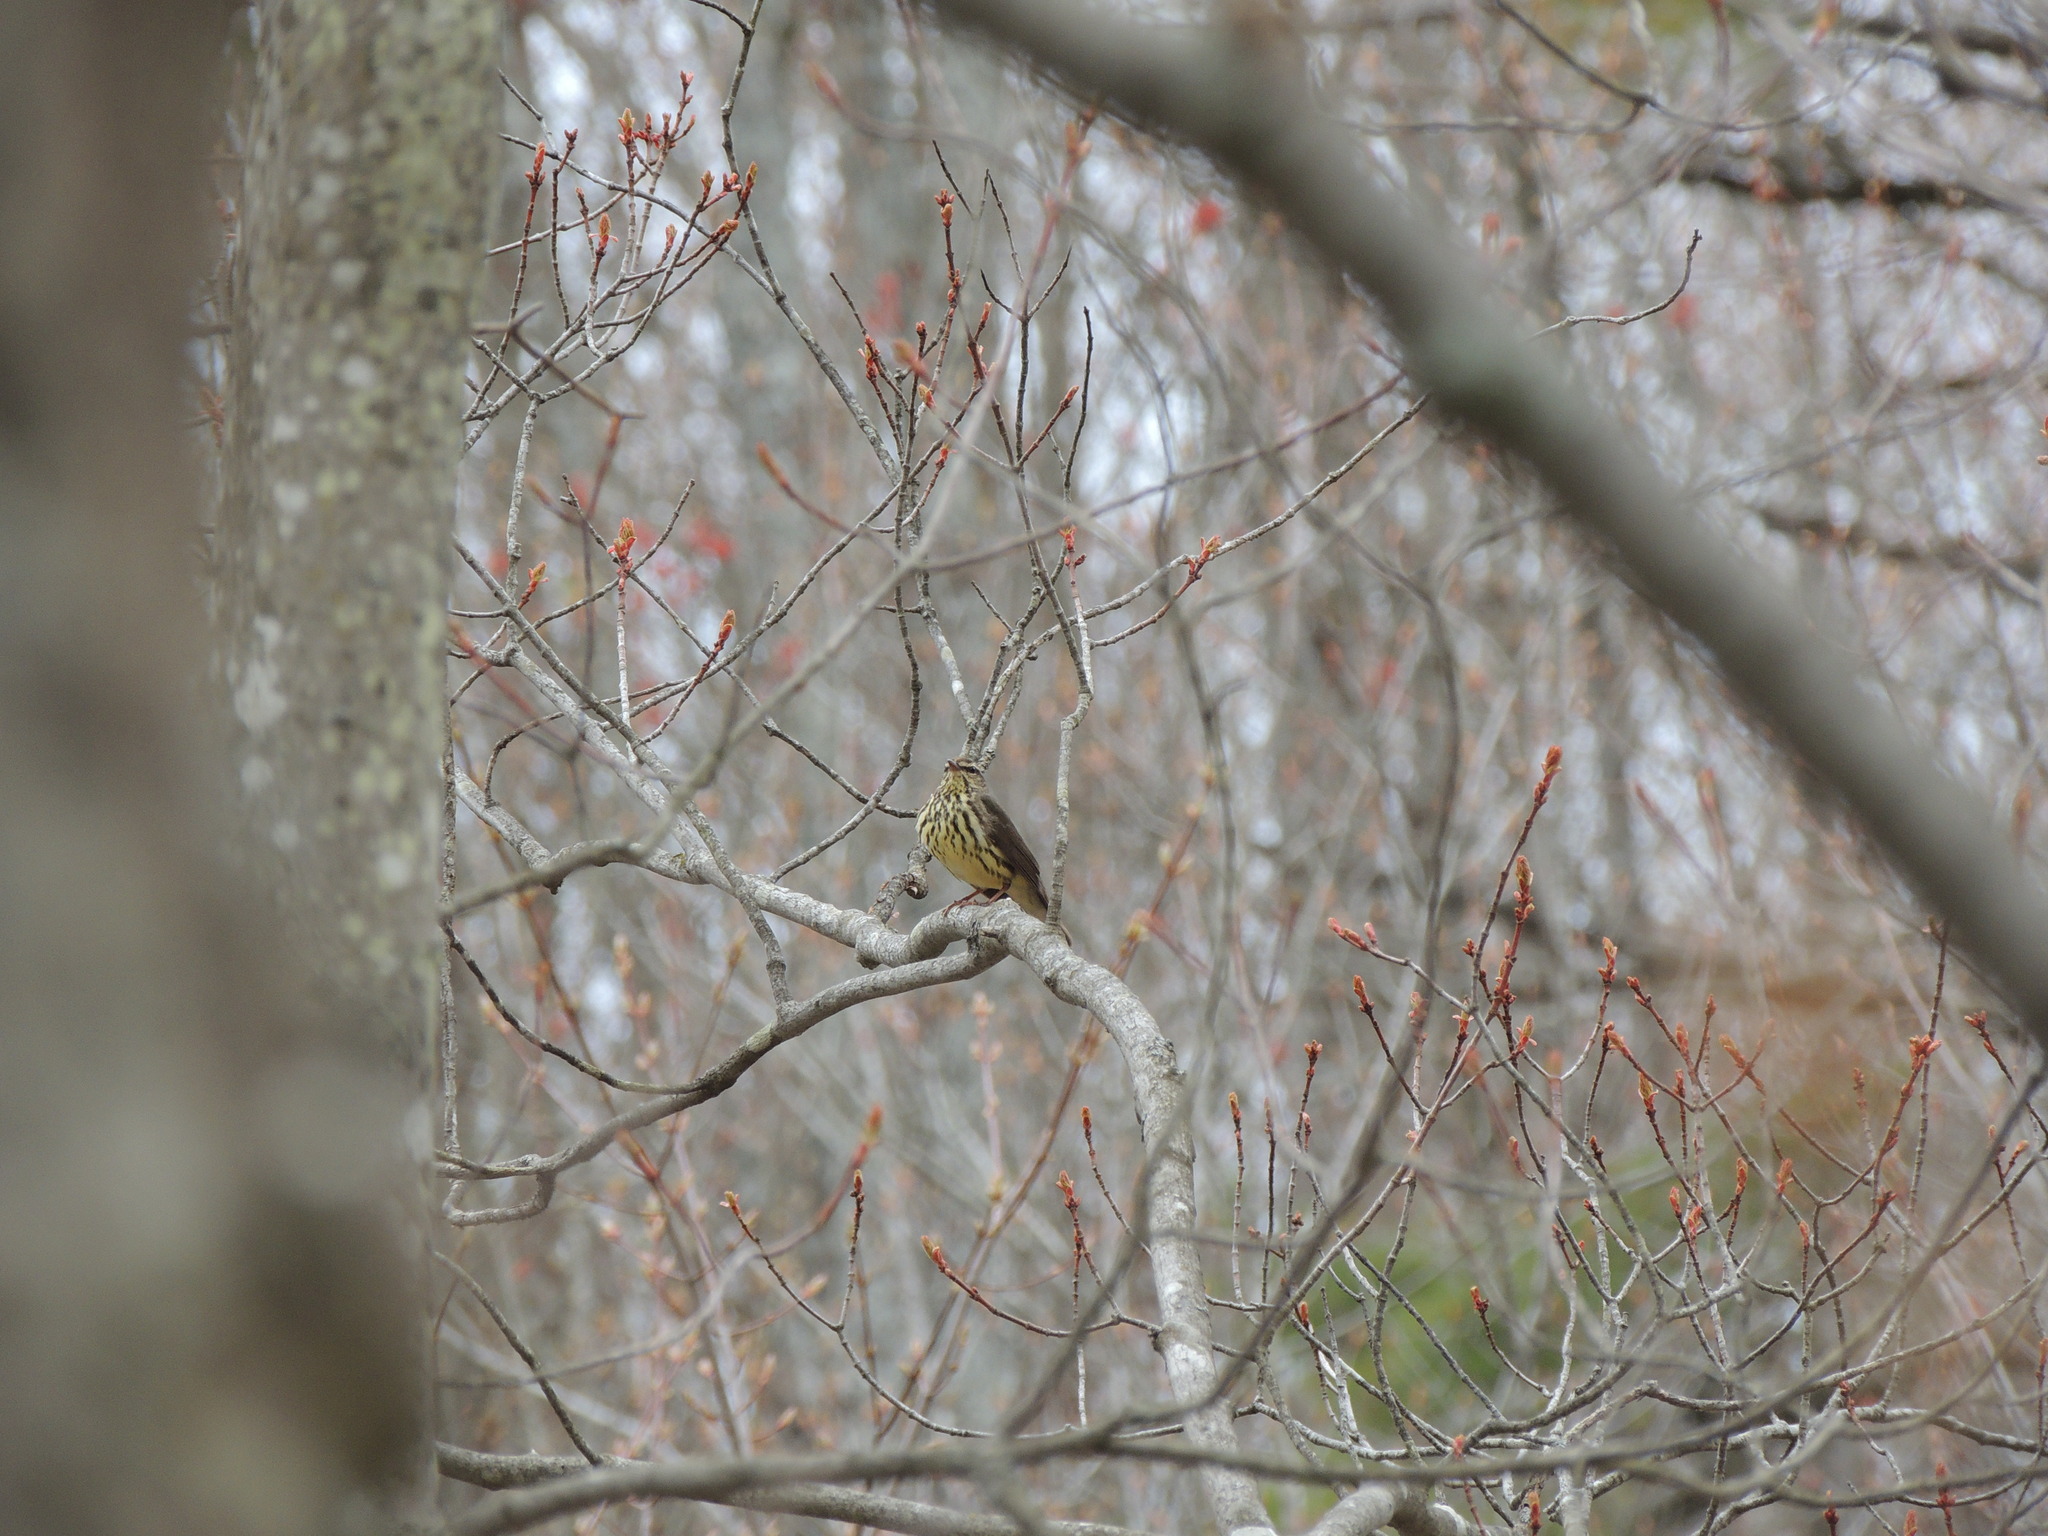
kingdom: Animalia
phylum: Chordata
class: Aves
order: Passeriformes
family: Parulidae
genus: Parkesia
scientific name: Parkesia noveboracensis
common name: Northern waterthrush
